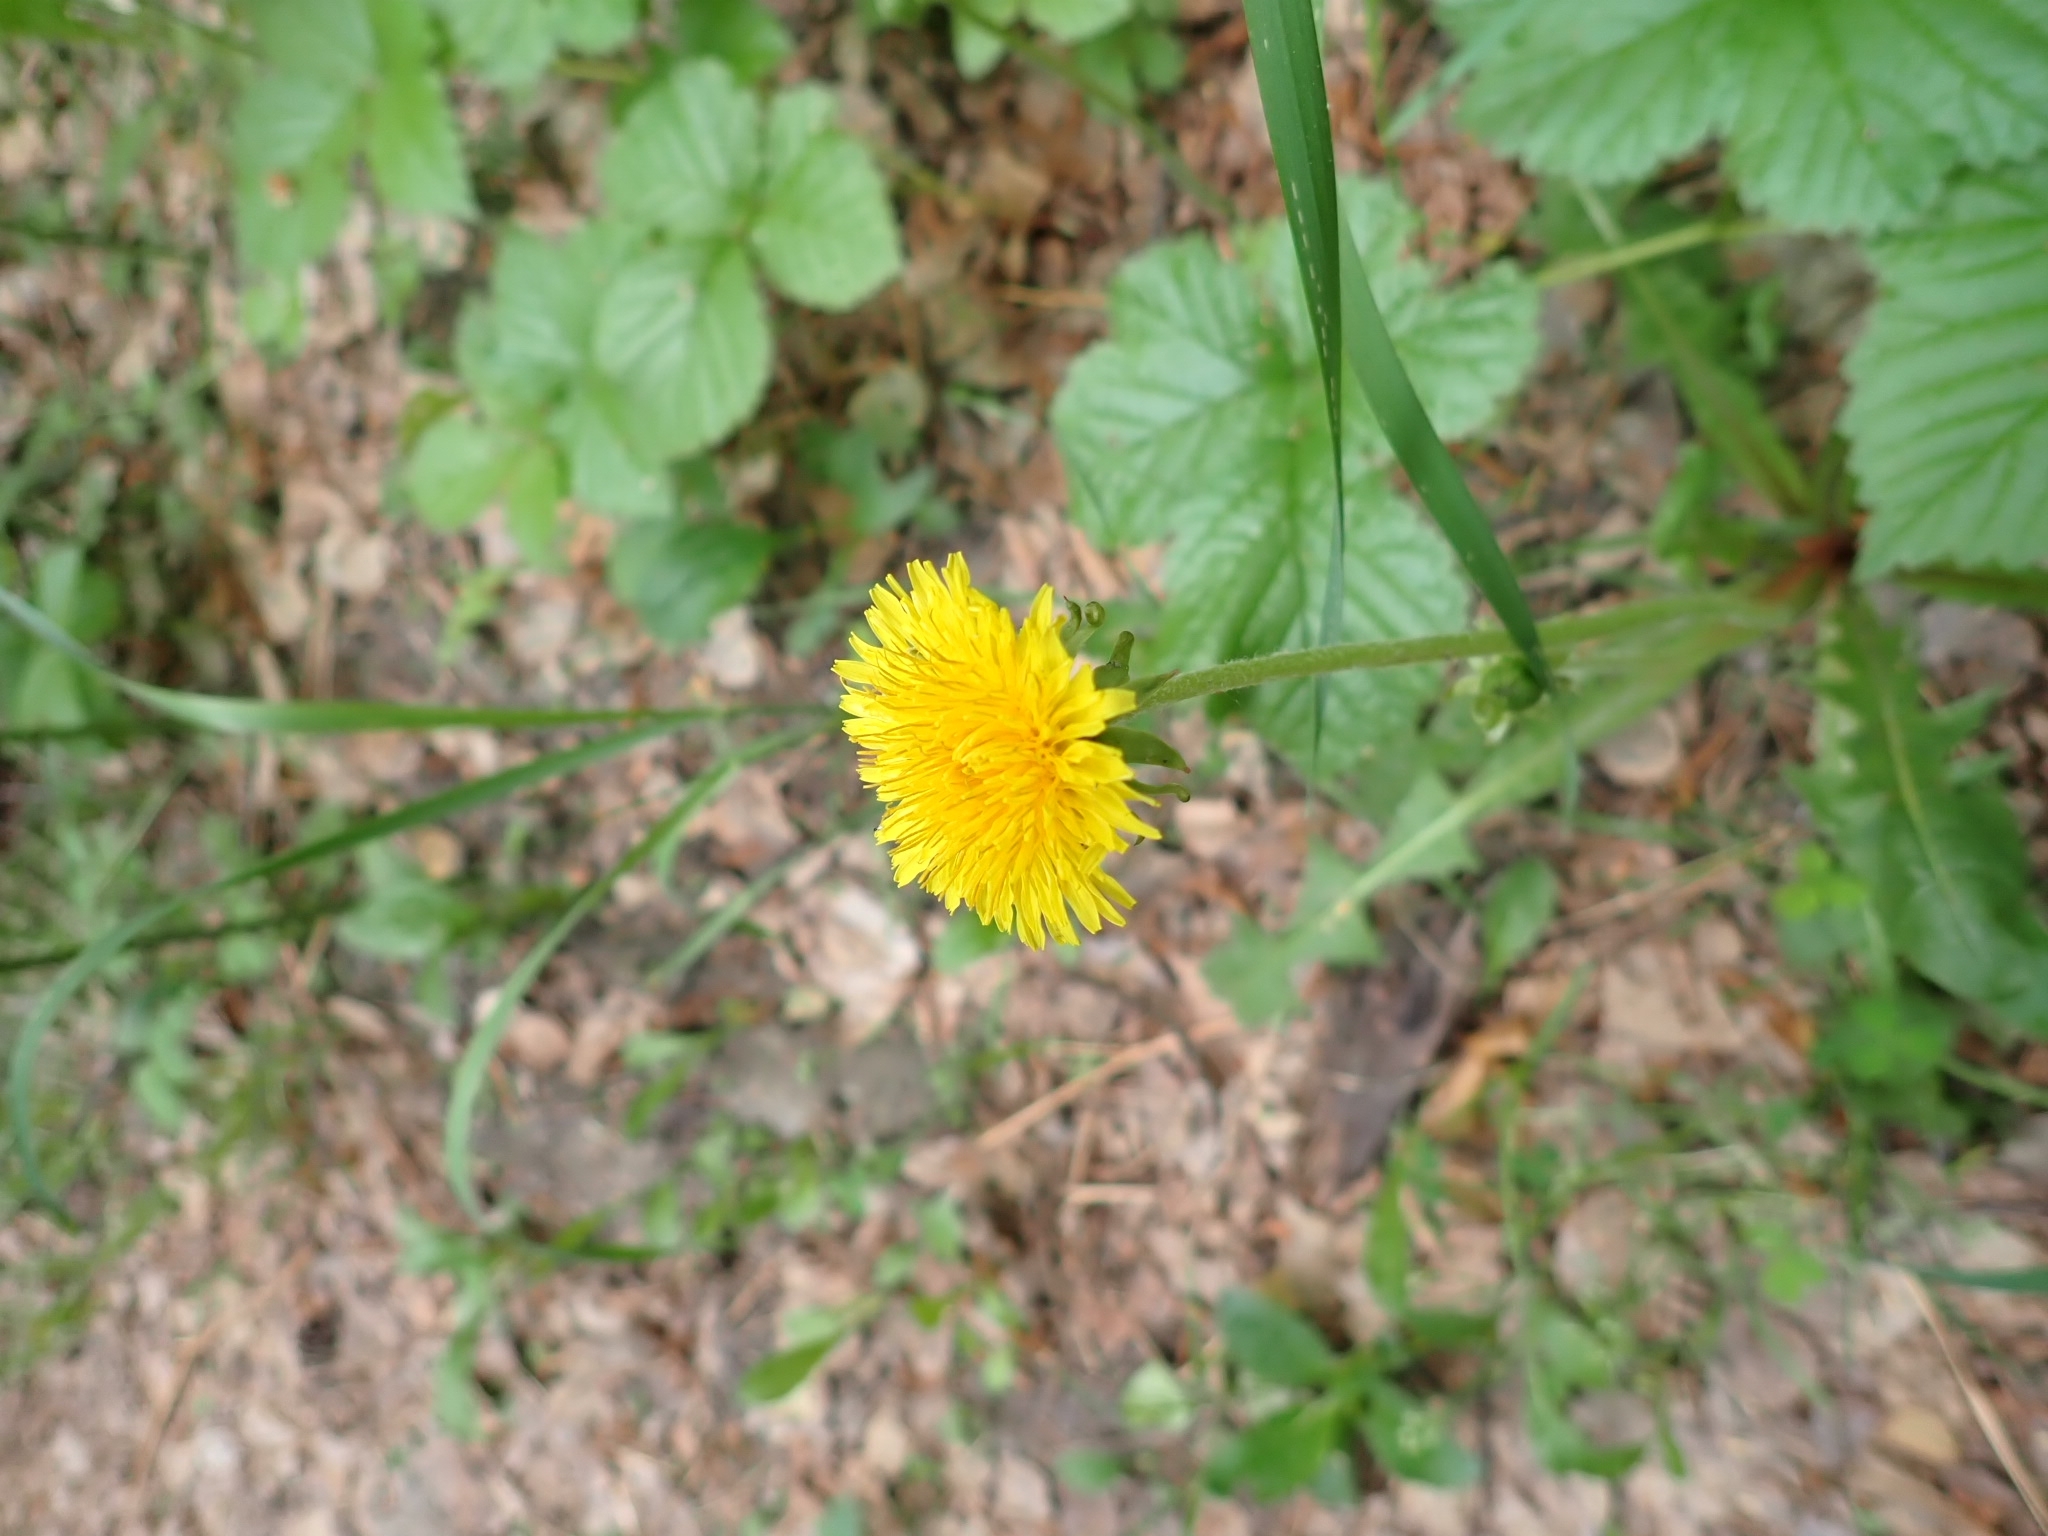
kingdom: Plantae
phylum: Tracheophyta
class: Magnoliopsida
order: Asterales
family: Asteraceae
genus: Taraxacum
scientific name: Taraxacum officinale
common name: Common dandelion
